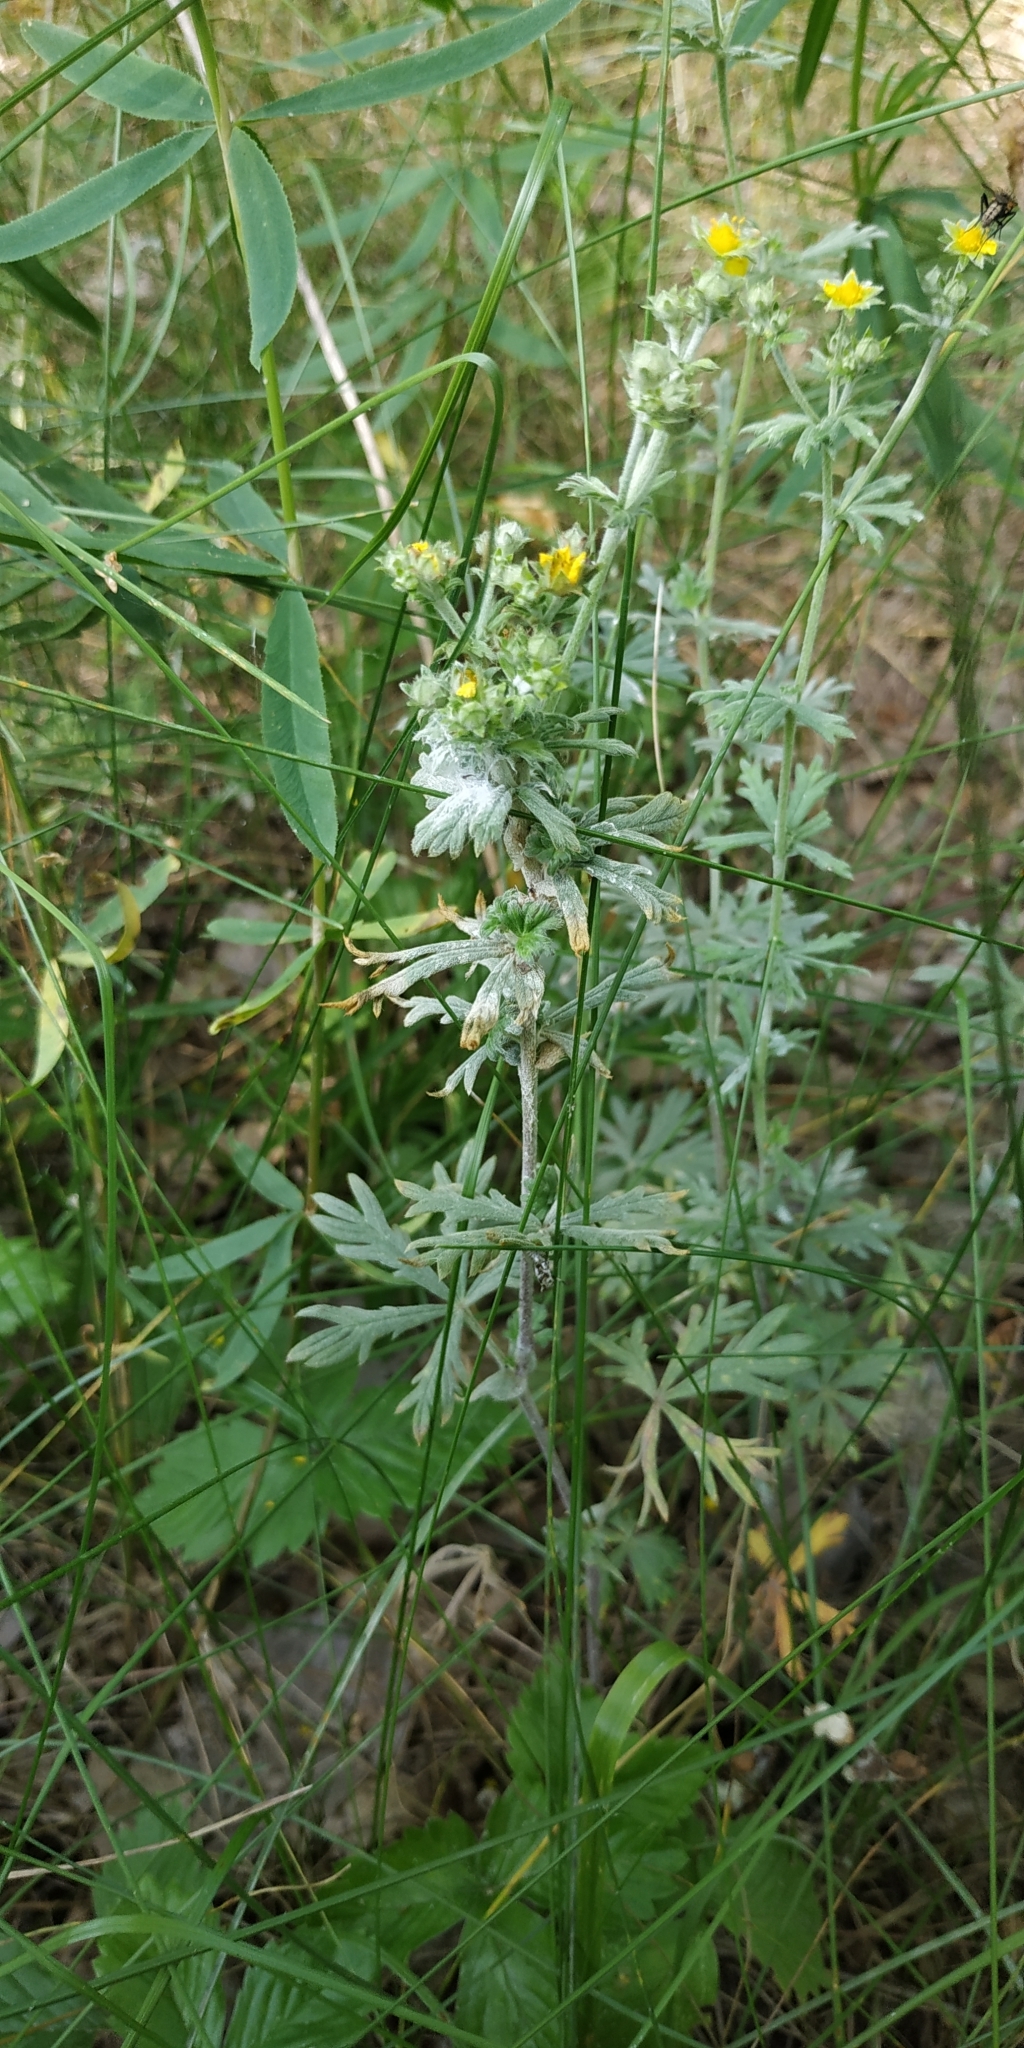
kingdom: Plantae
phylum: Tracheophyta
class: Magnoliopsida
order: Rosales
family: Rosaceae
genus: Potentilla
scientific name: Potentilla argentea
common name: Hoary cinquefoil
